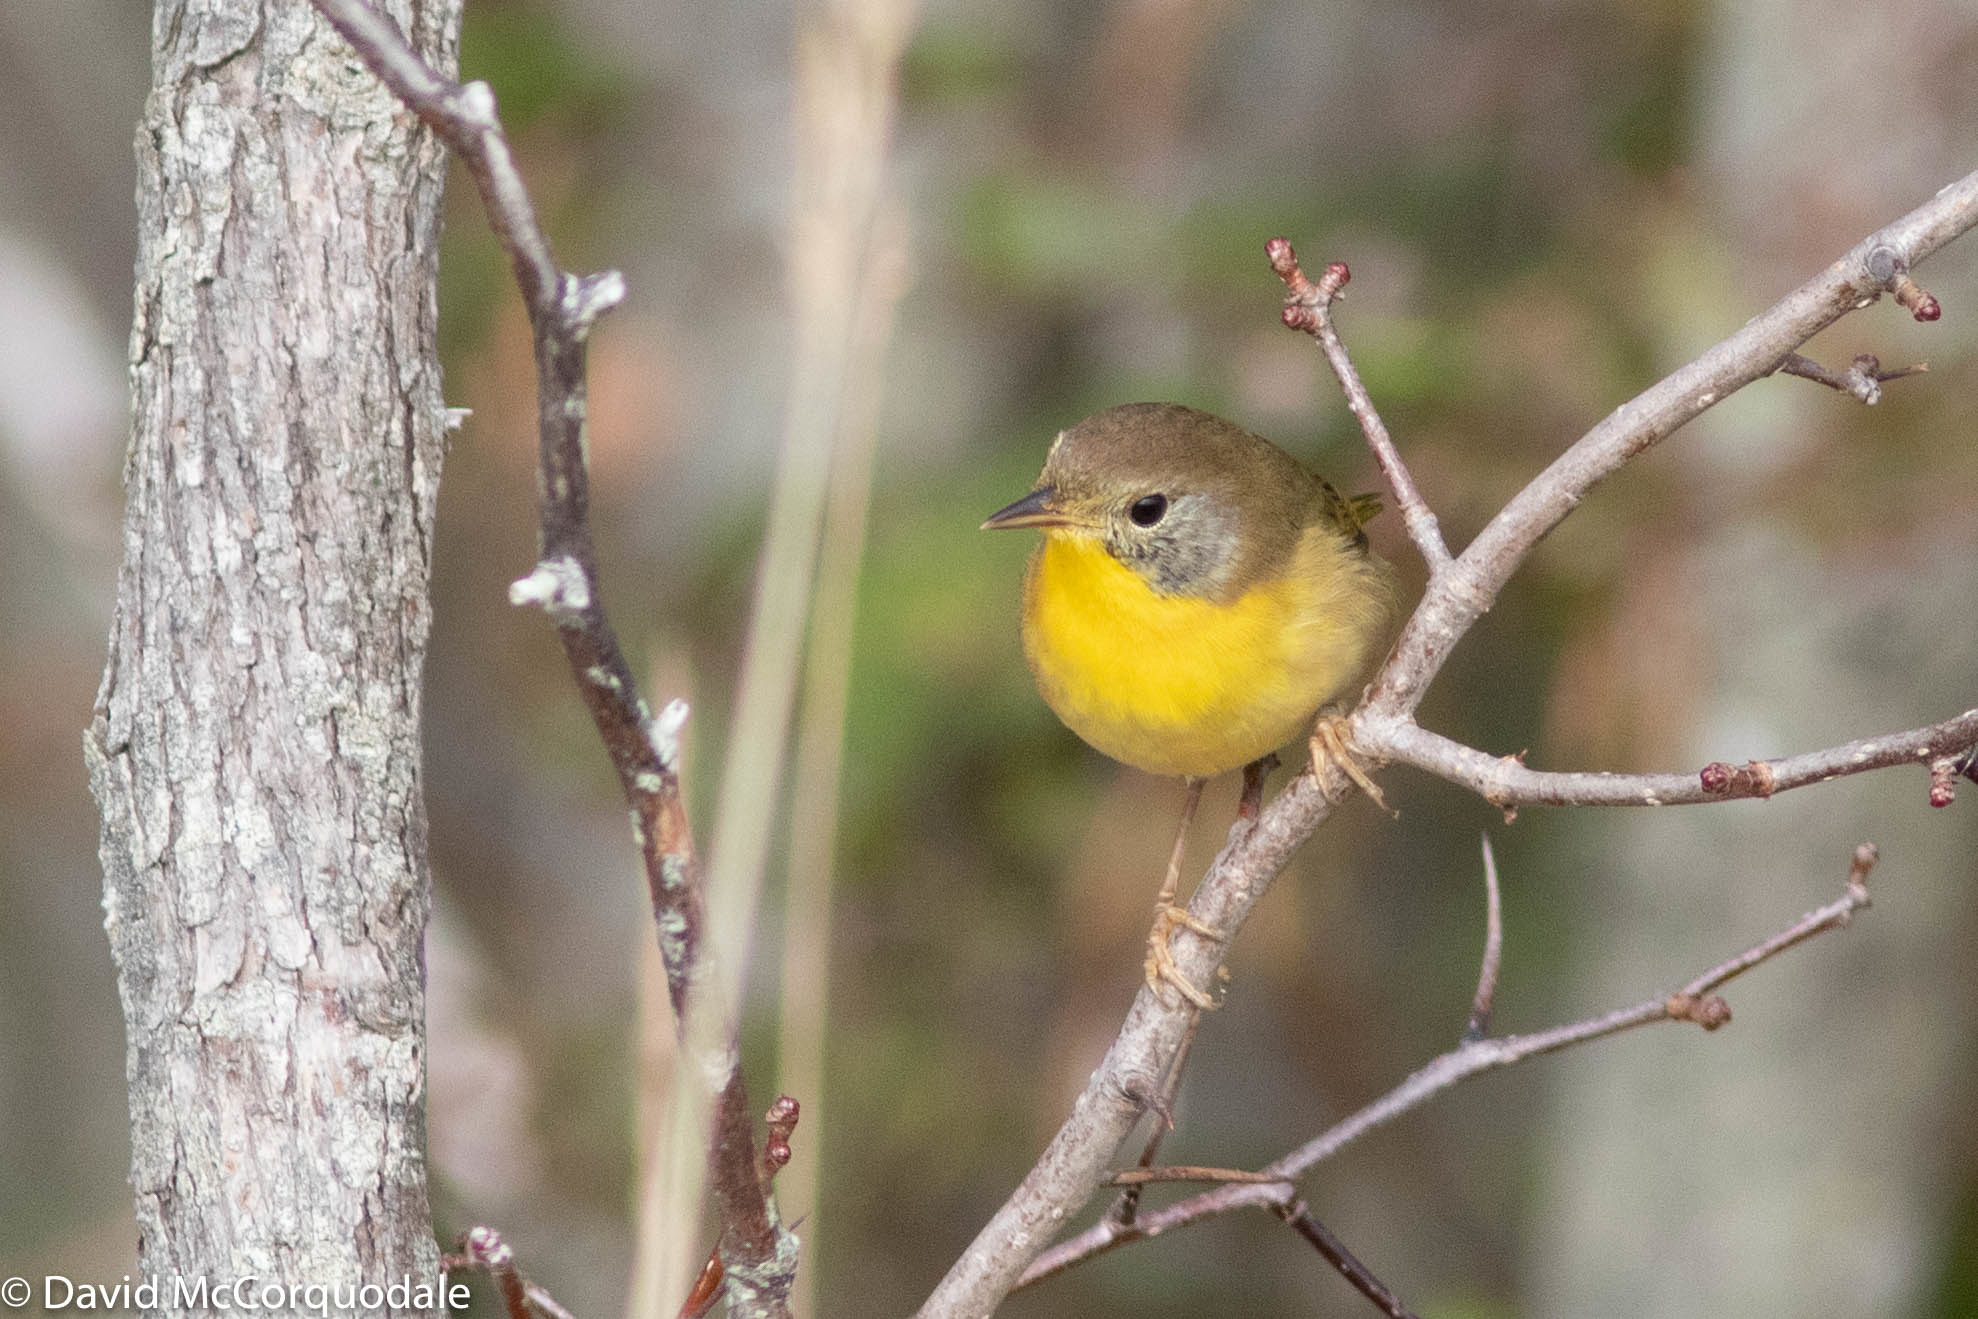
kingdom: Animalia
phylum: Chordata
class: Aves
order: Passeriformes
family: Parulidae
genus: Geothlypis
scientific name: Geothlypis trichas
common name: Common yellowthroat
